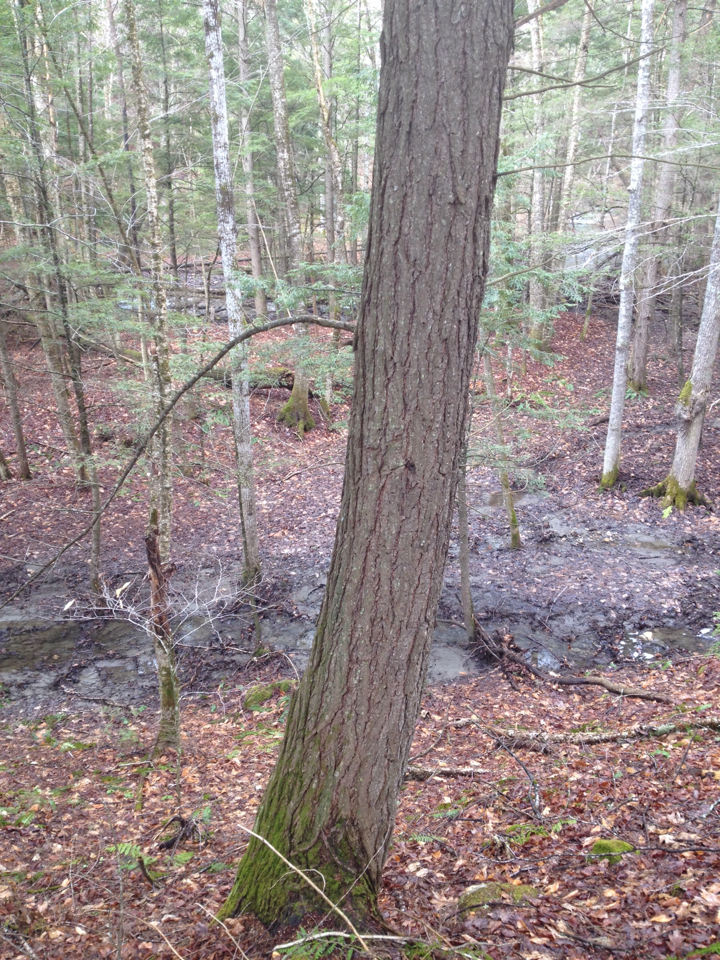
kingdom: Plantae
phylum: Tracheophyta
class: Pinopsida
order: Pinales
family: Pinaceae
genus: Tsuga
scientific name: Tsuga canadensis
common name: Eastern hemlock
